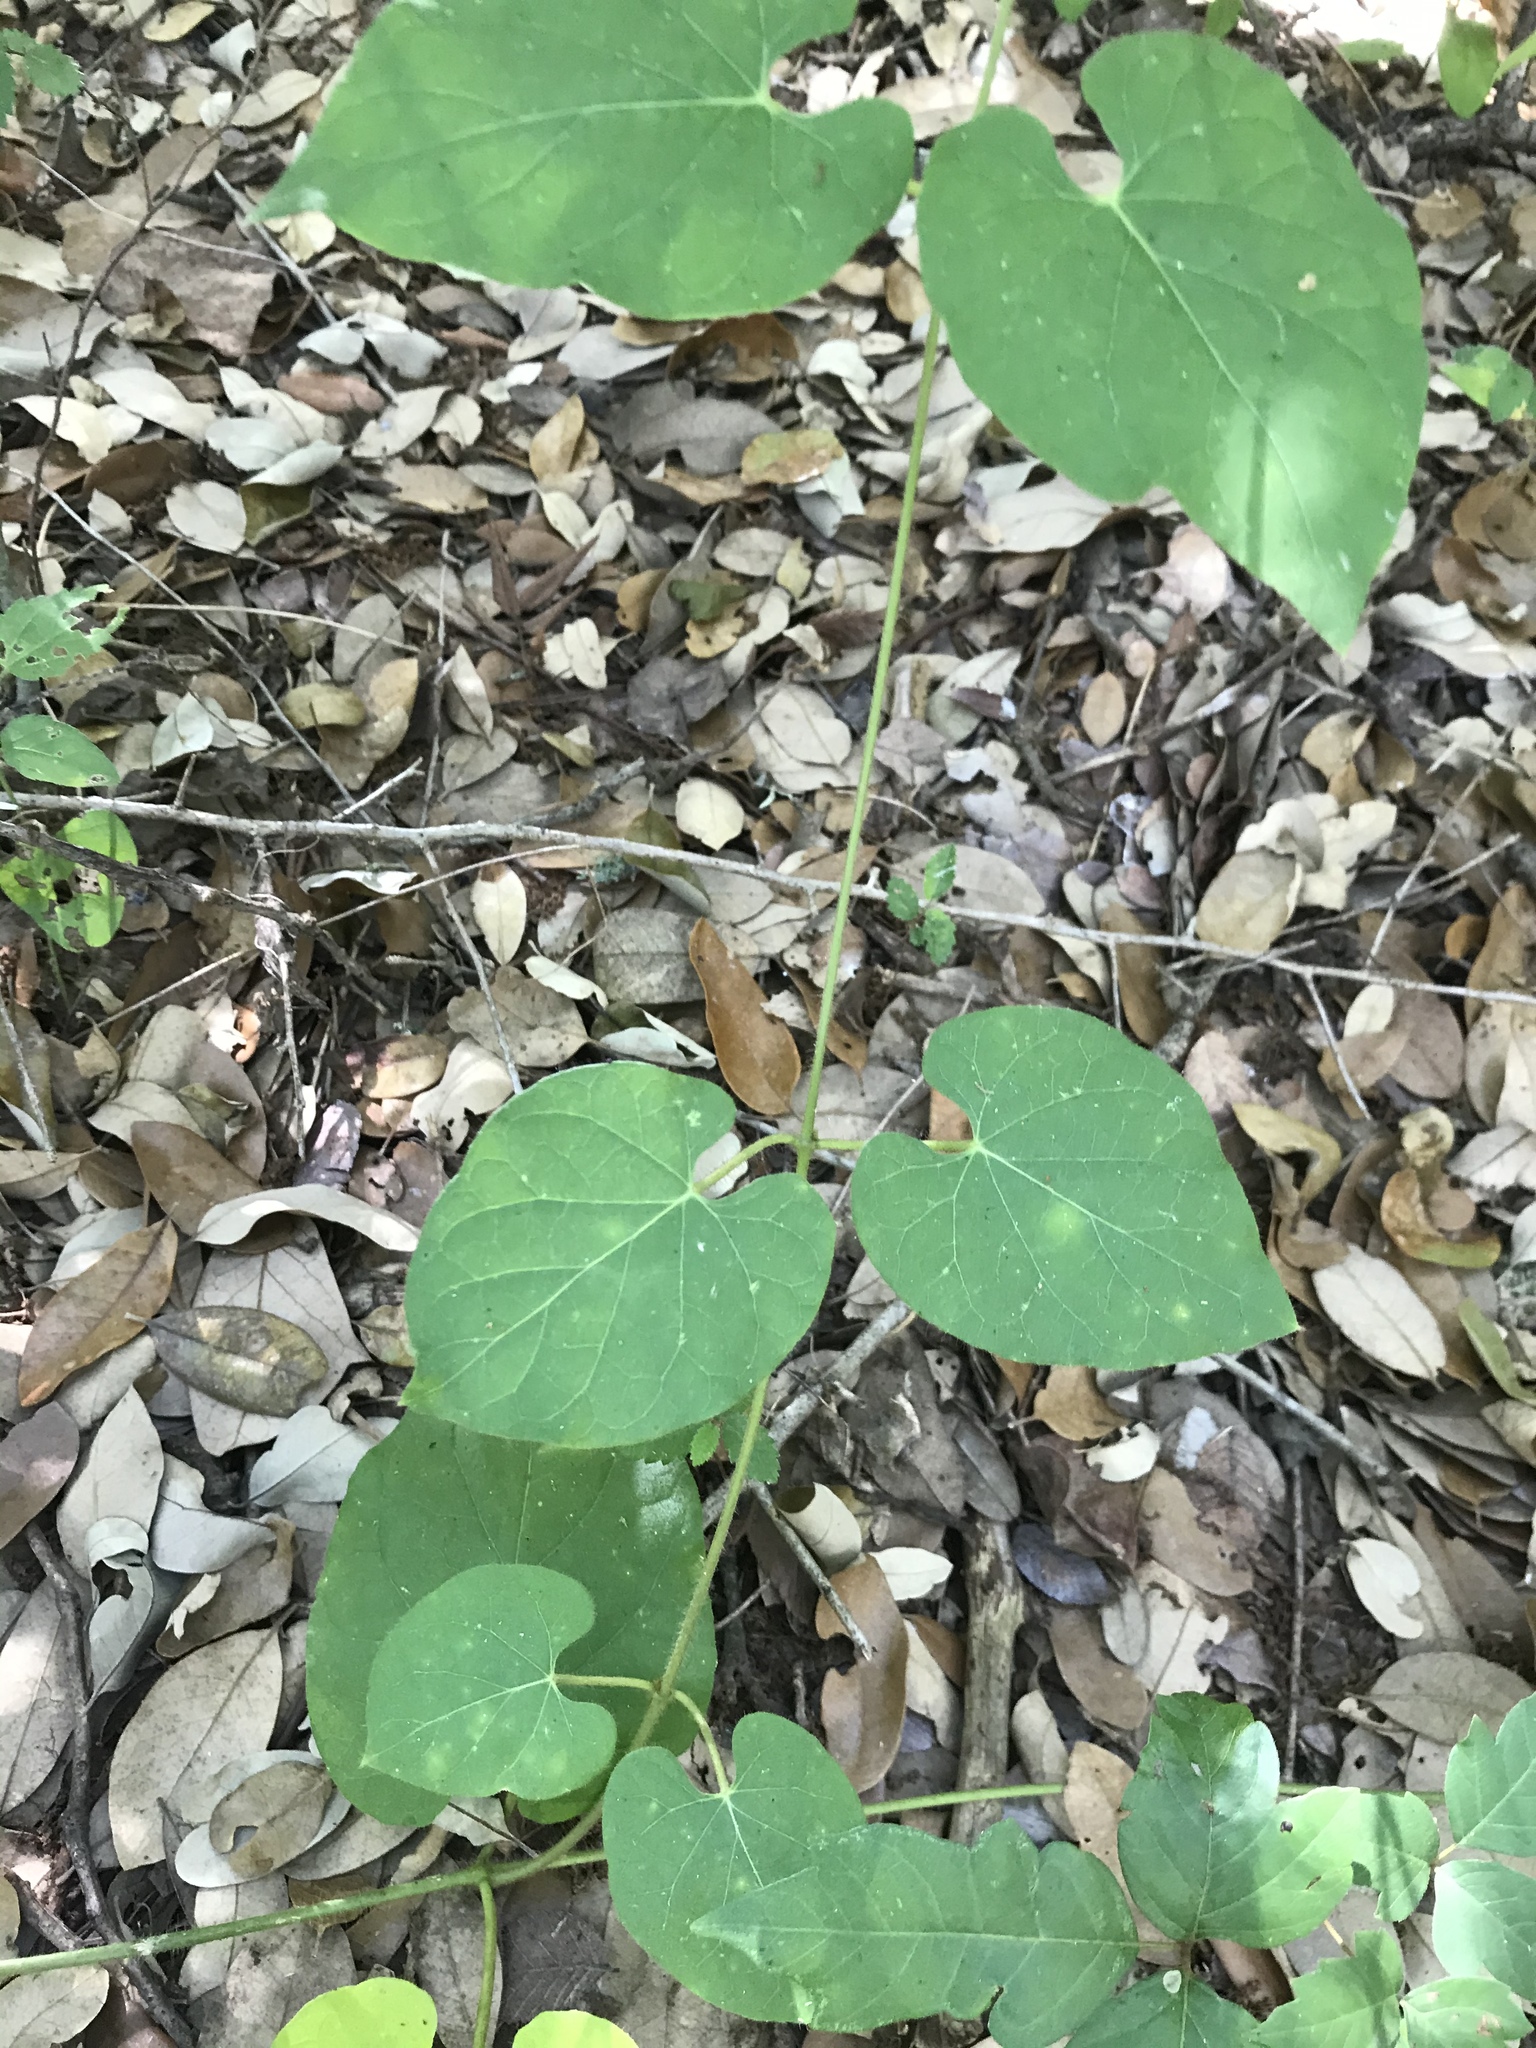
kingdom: Plantae
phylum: Tracheophyta
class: Magnoliopsida
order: Gentianales
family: Apocynaceae
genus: Dictyanthus
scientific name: Dictyanthus reticulatus
